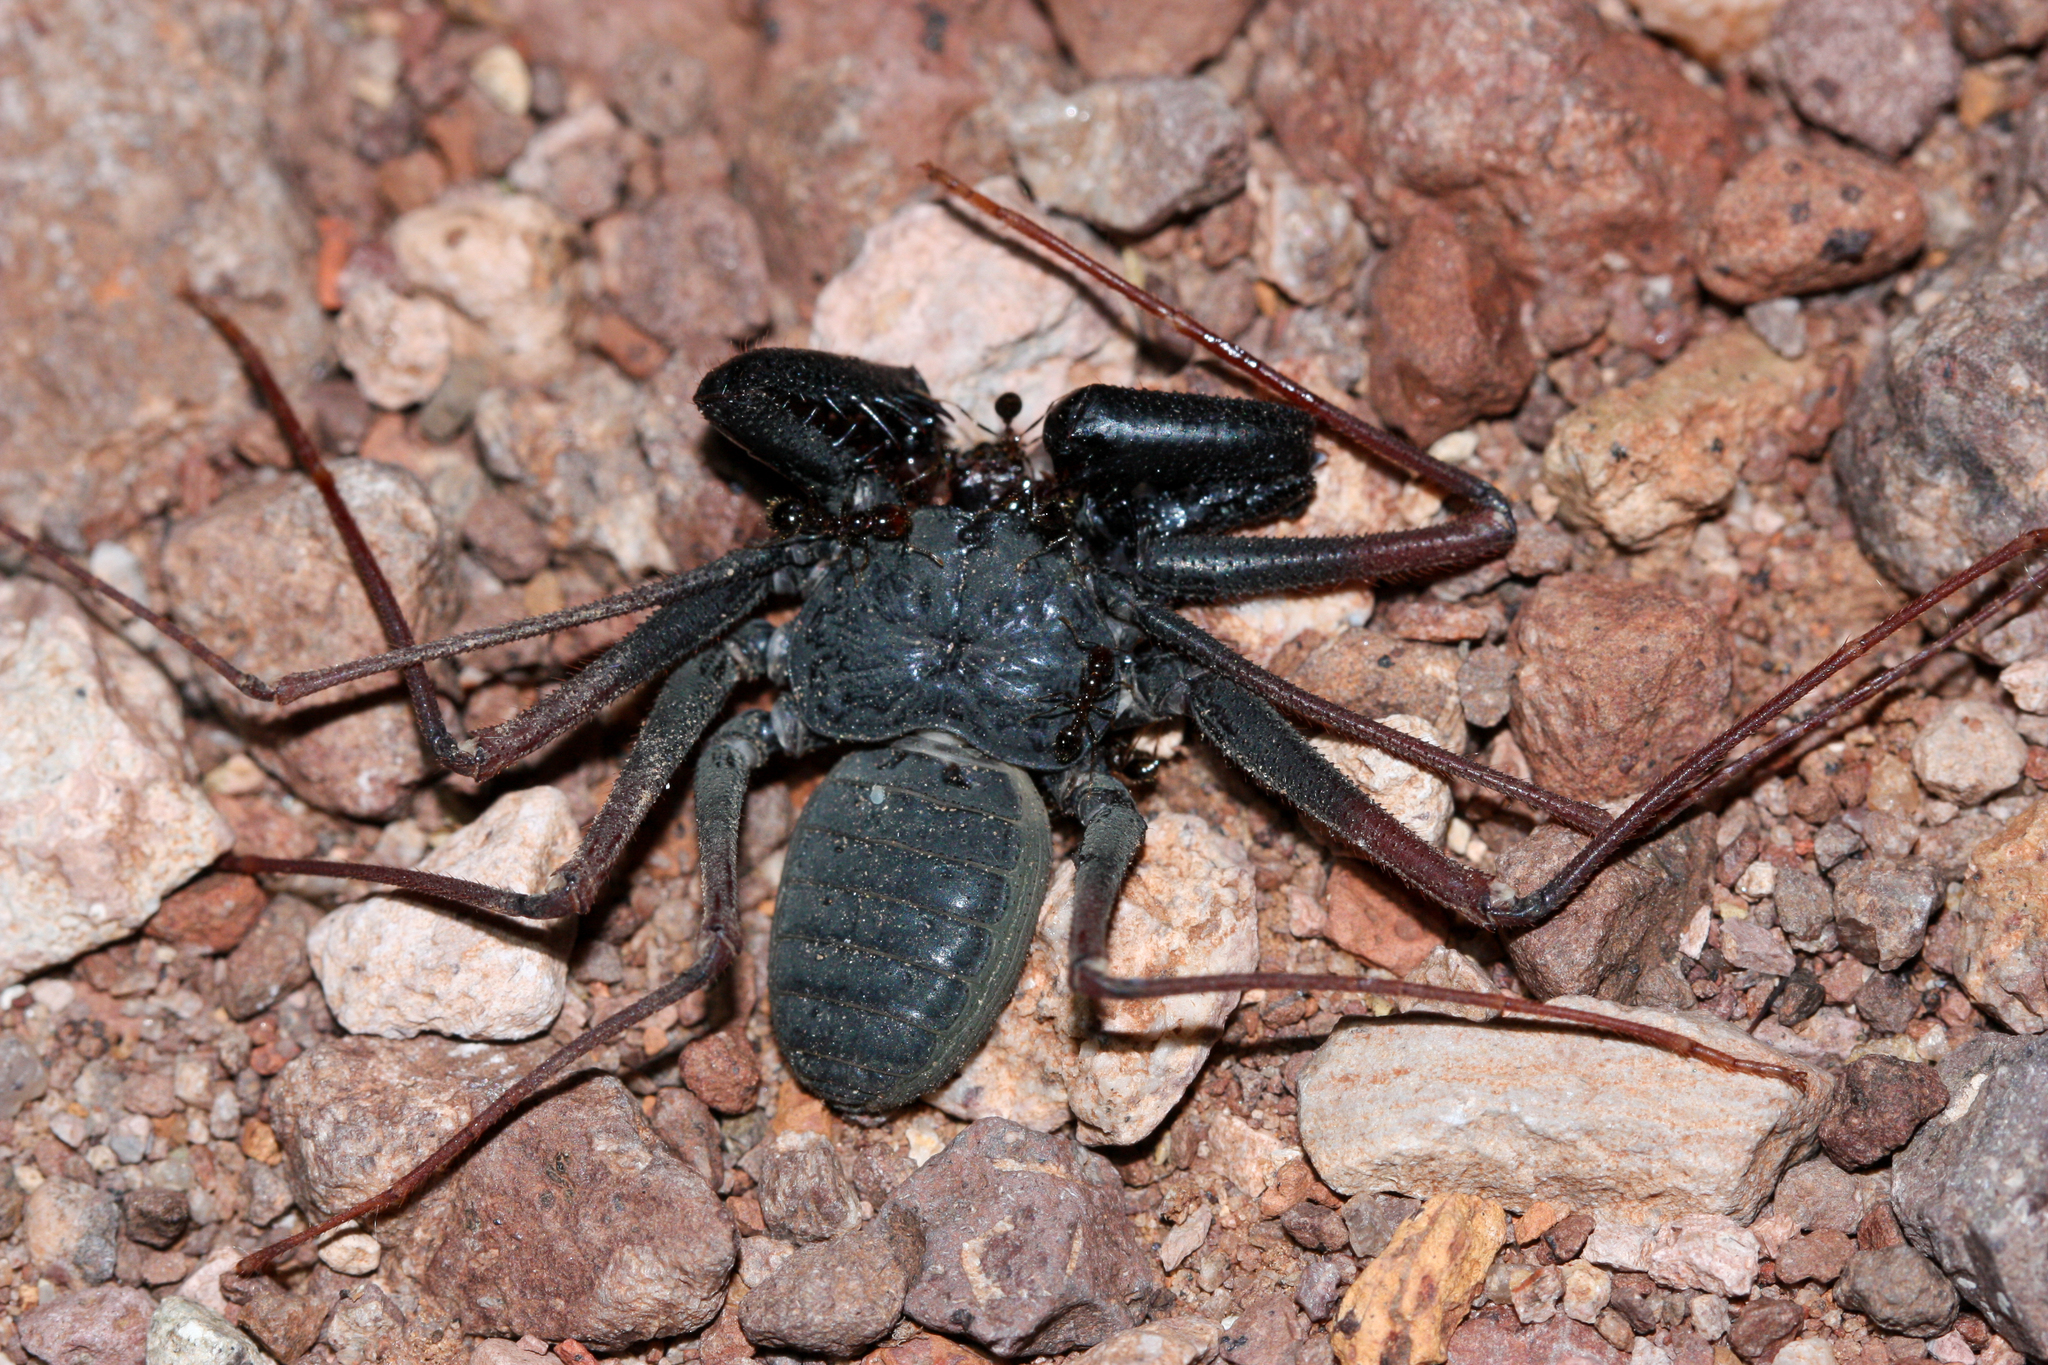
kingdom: Animalia
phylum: Arthropoda
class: Arachnida
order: Amblypygi
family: Phrynidae
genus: Paraphrynus
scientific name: Paraphrynus carolynae
